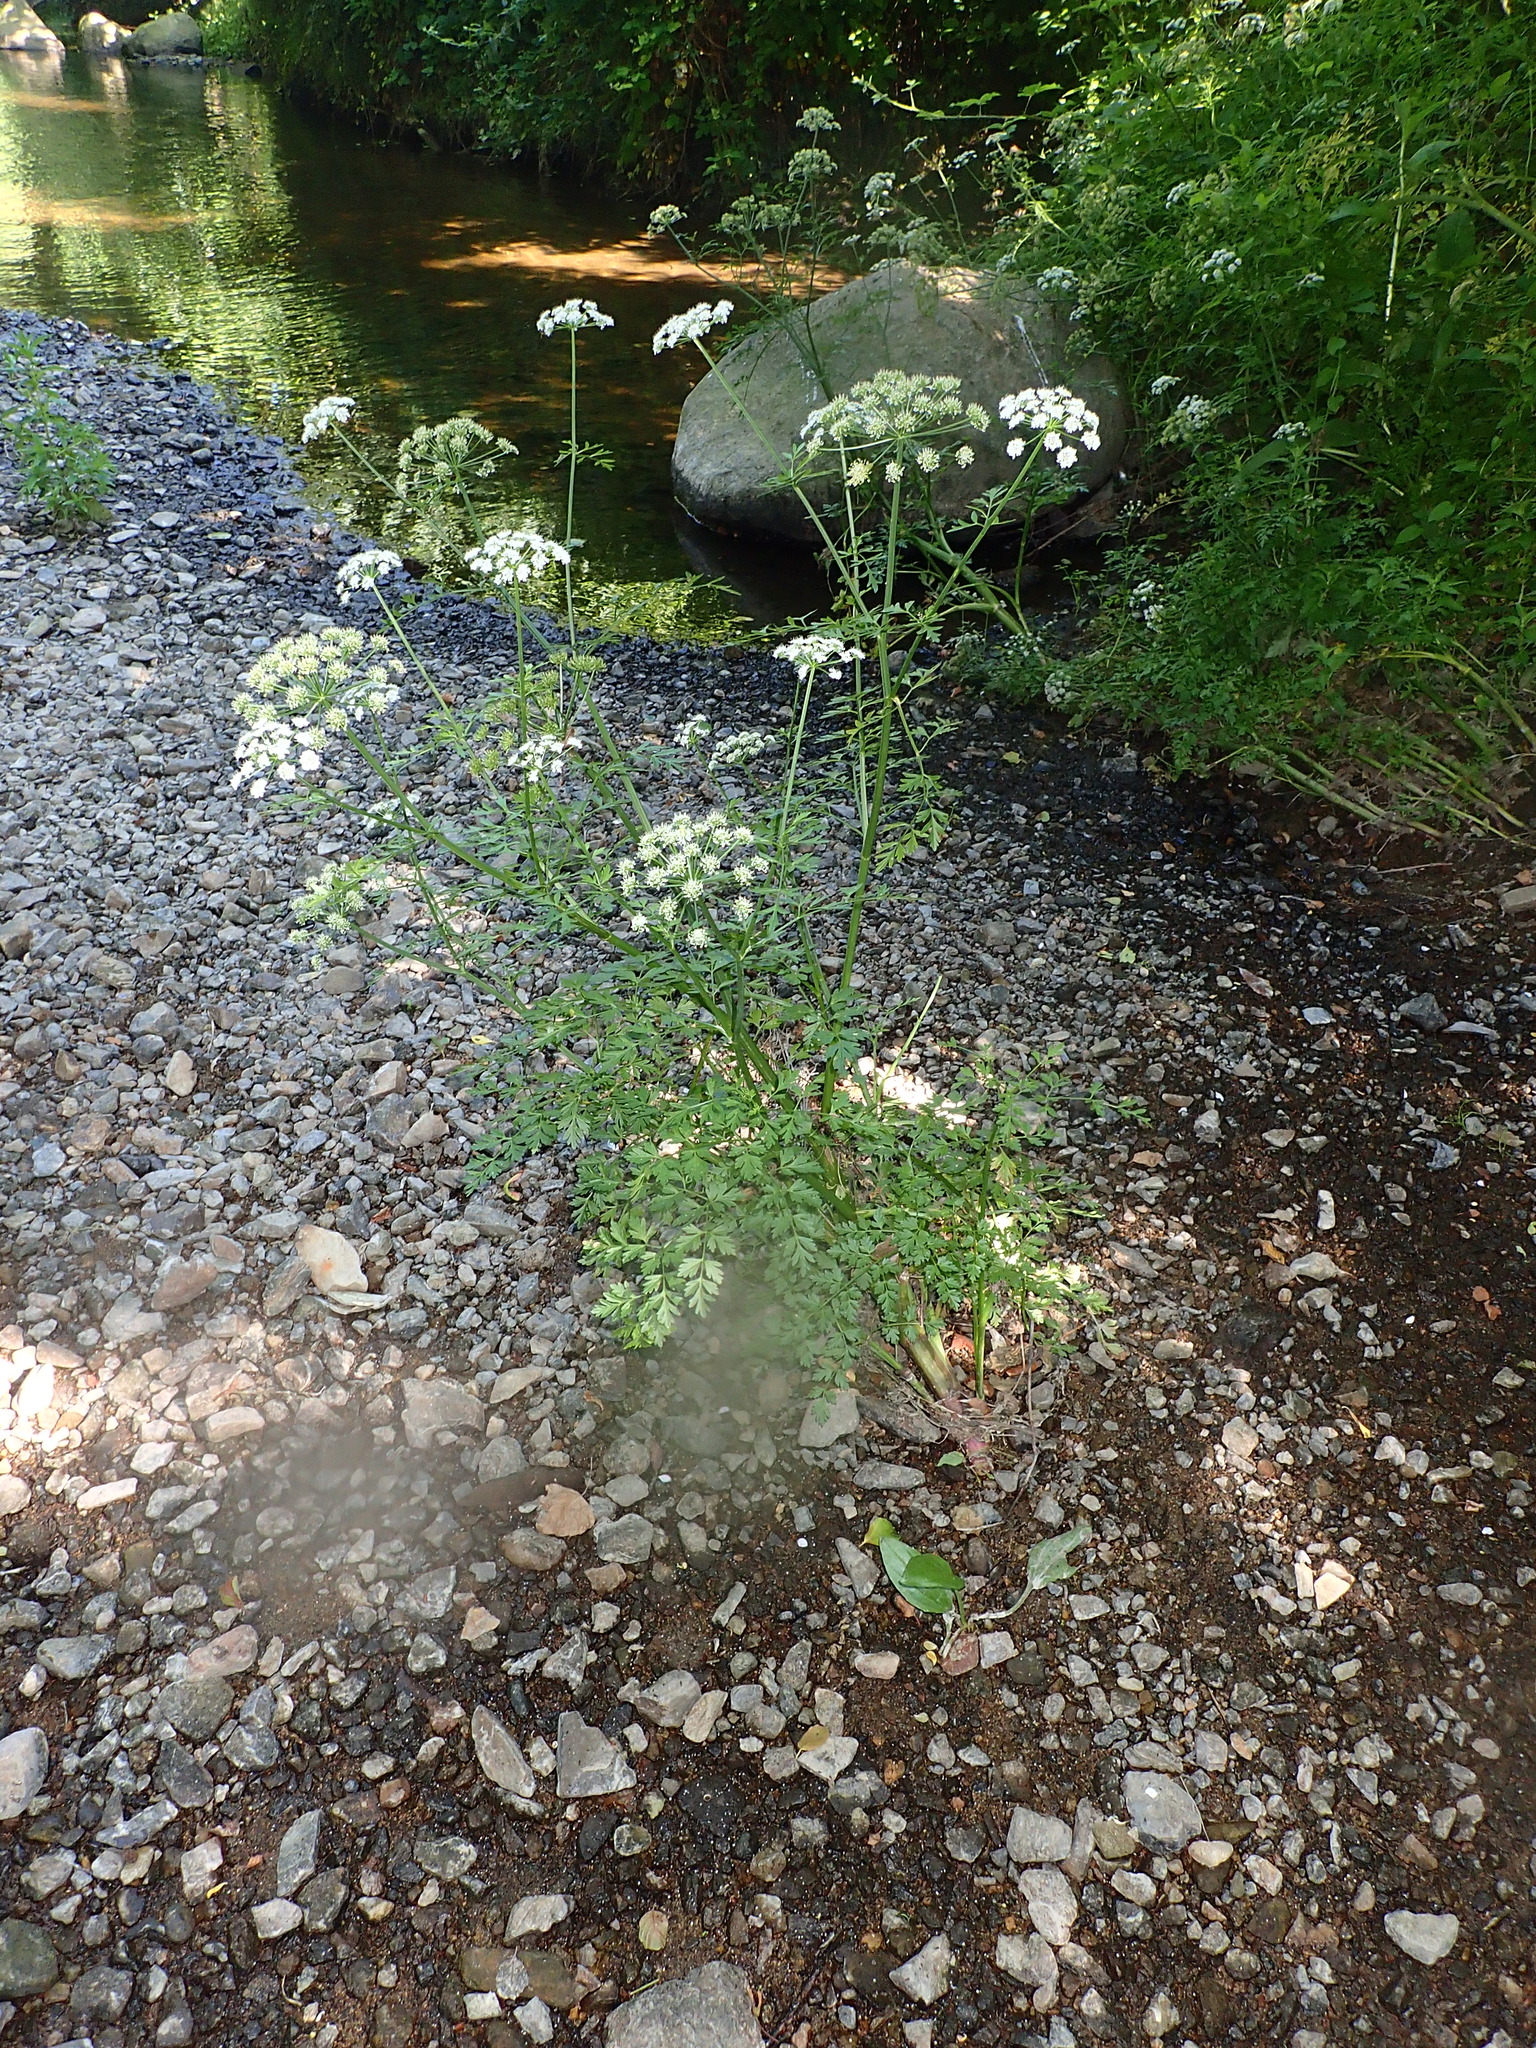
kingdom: Plantae
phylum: Tracheophyta
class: Magnoliopsida
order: Apiales
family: Apiaceae
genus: Oenanthe
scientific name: Oenanthe crocata
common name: Hemlock water-dropwort
